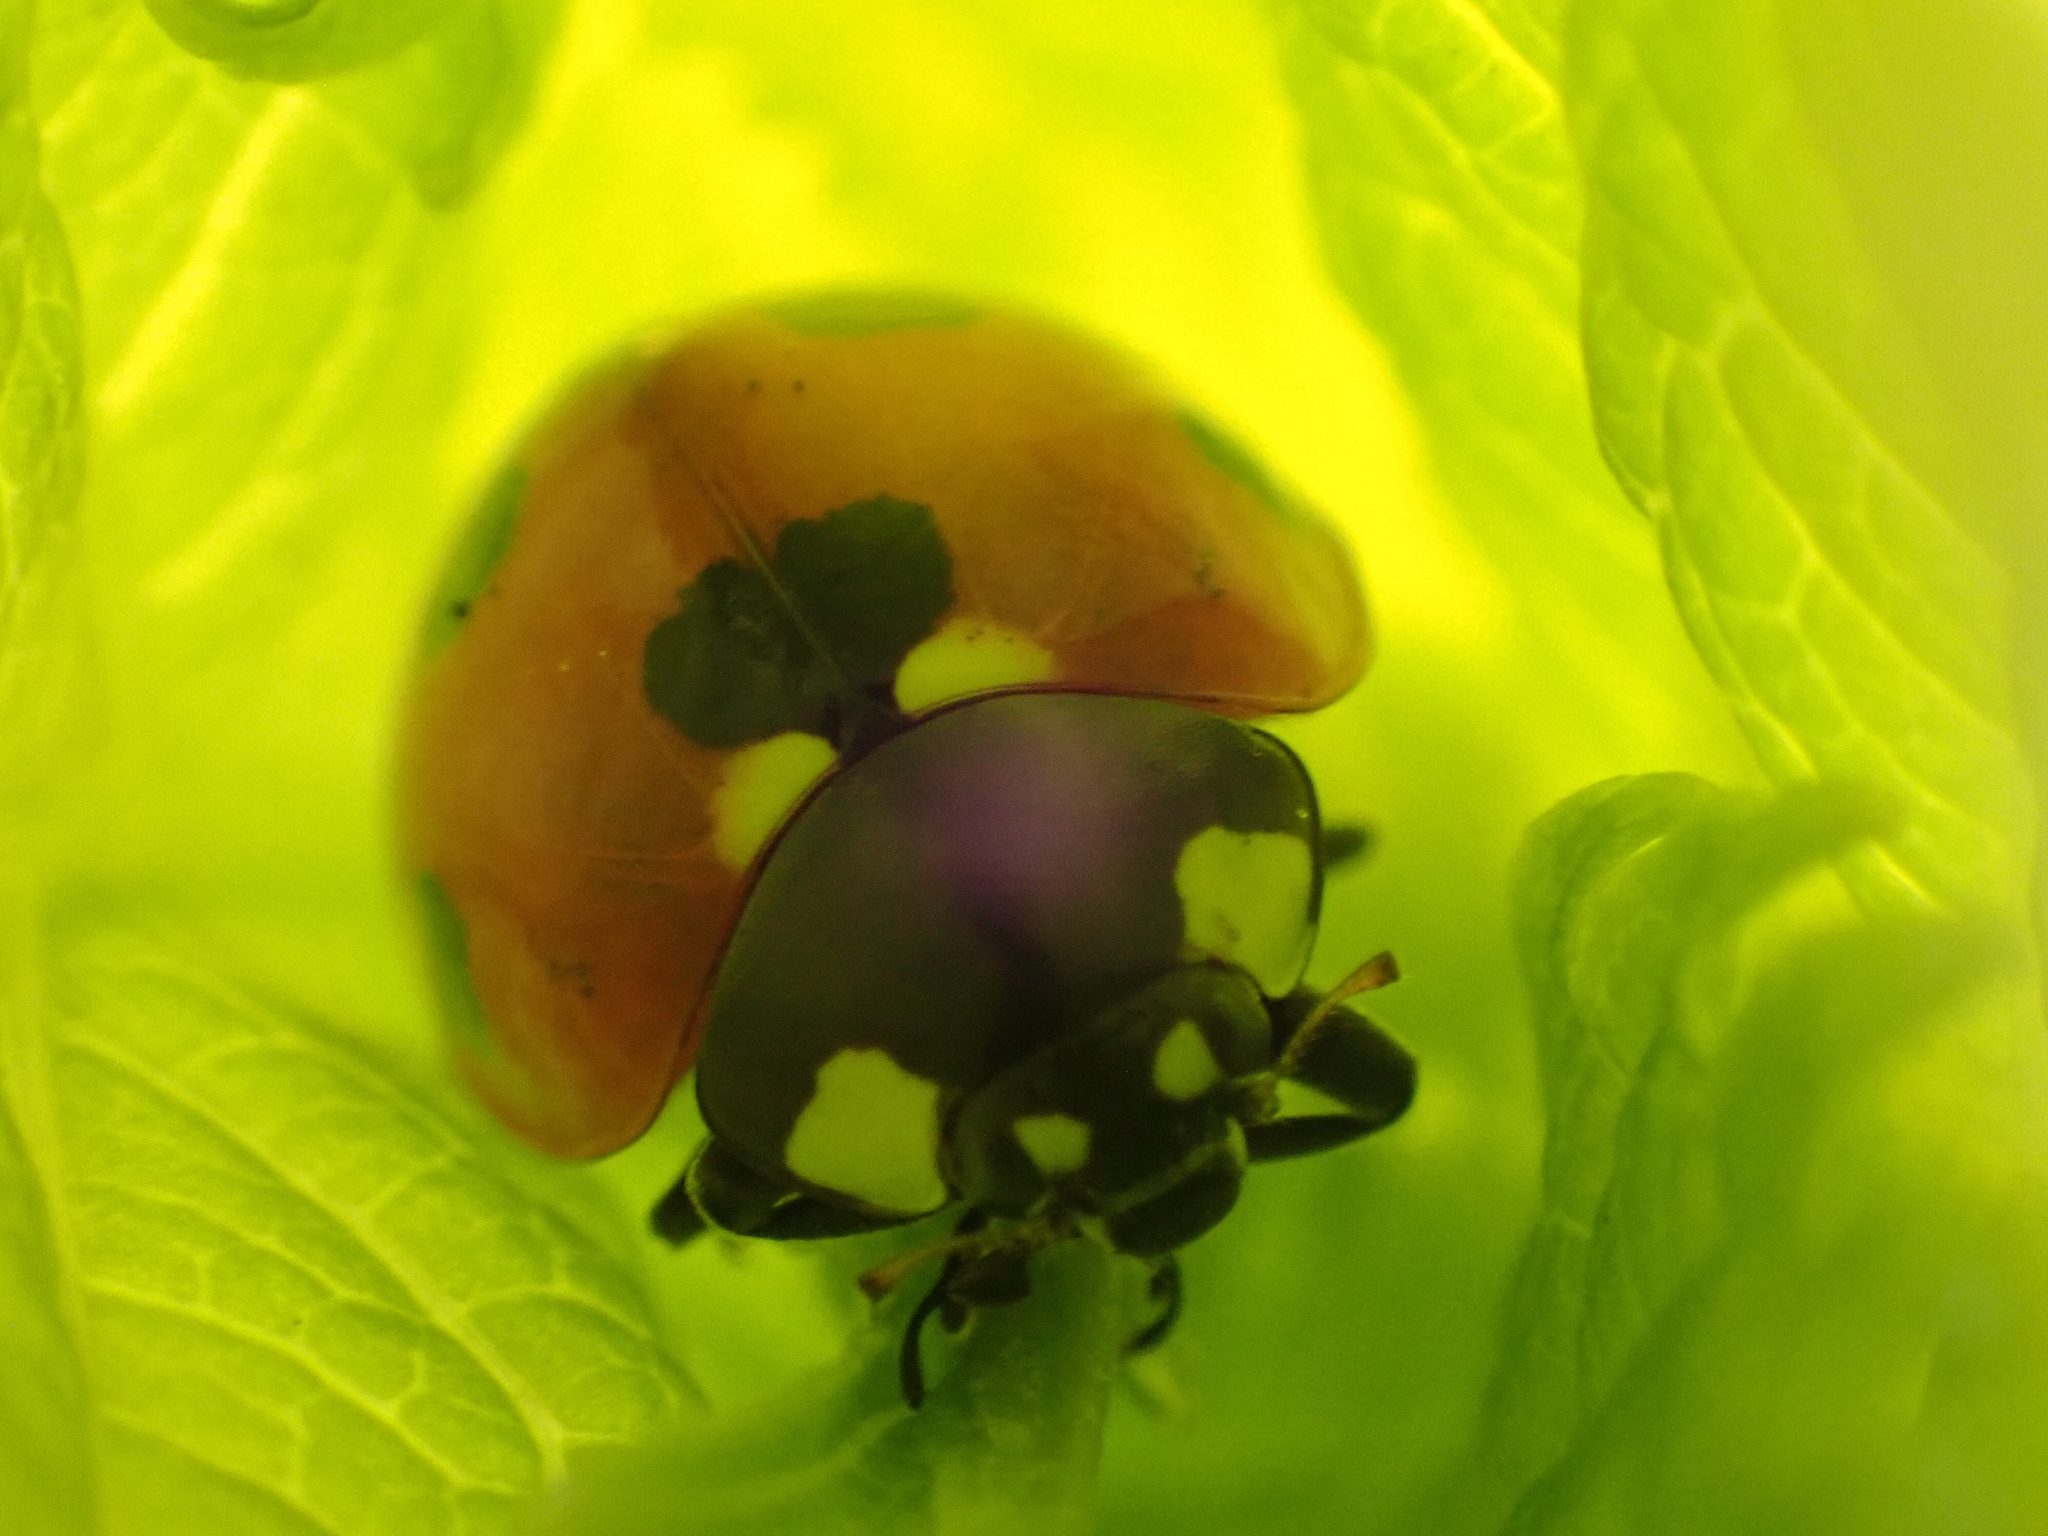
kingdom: Animalia
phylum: Arthropoda
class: Insecta
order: Coleoptera
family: Coccinellidae
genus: Coccinella
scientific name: Coccinella septempunctata
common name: Sevenspotted lady beetle
